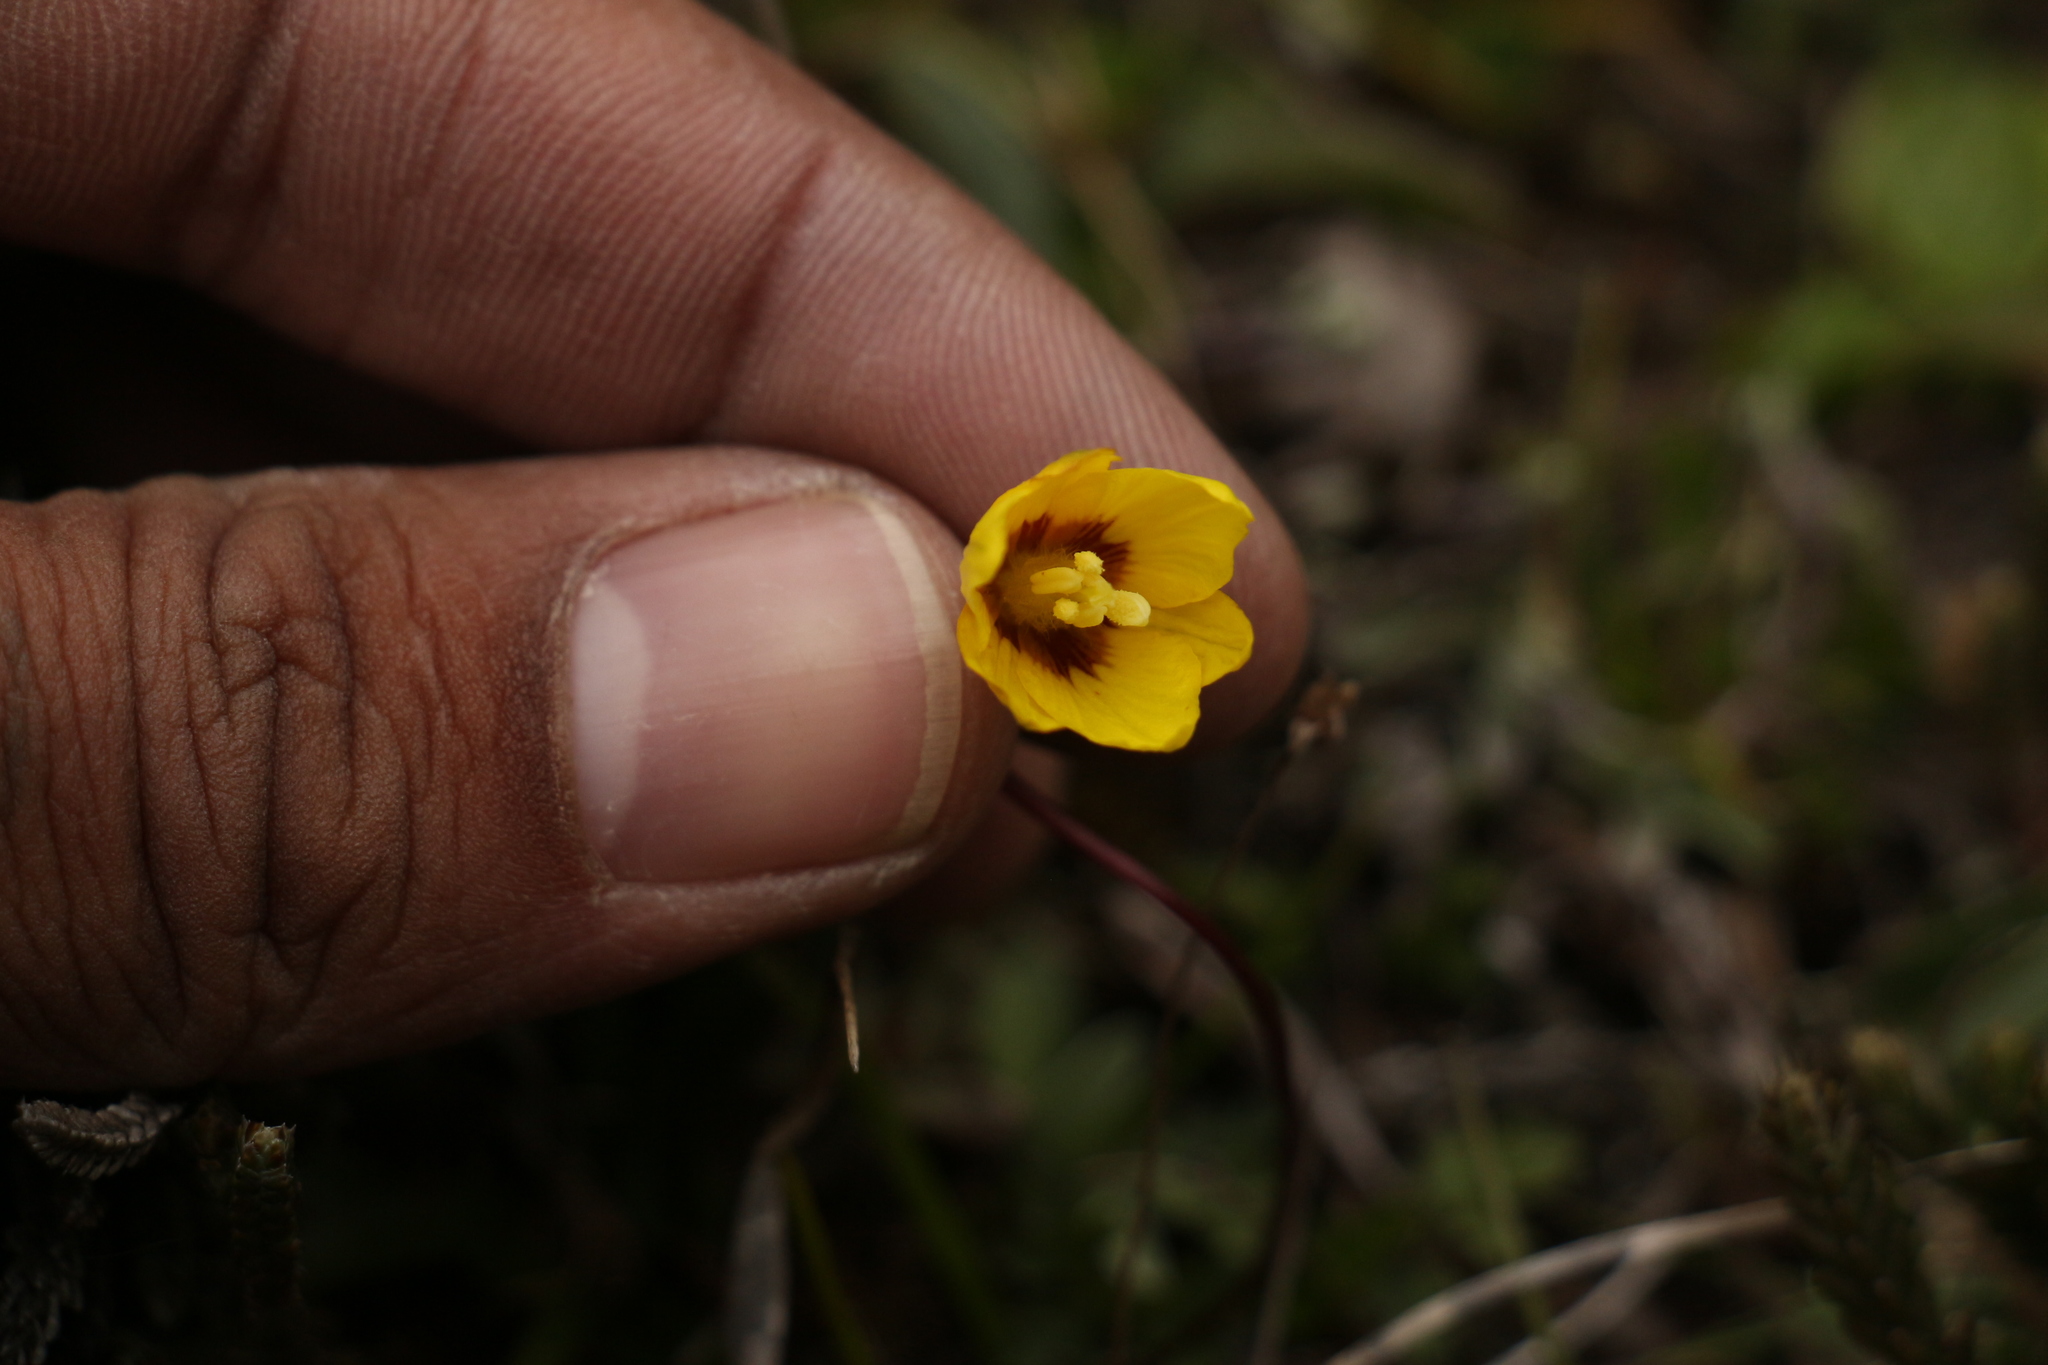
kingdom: Plantae
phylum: Tracheophyta
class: Liliopsida
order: Liliales
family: Liliaceae
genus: Gagea
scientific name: Gagea flavonutans
